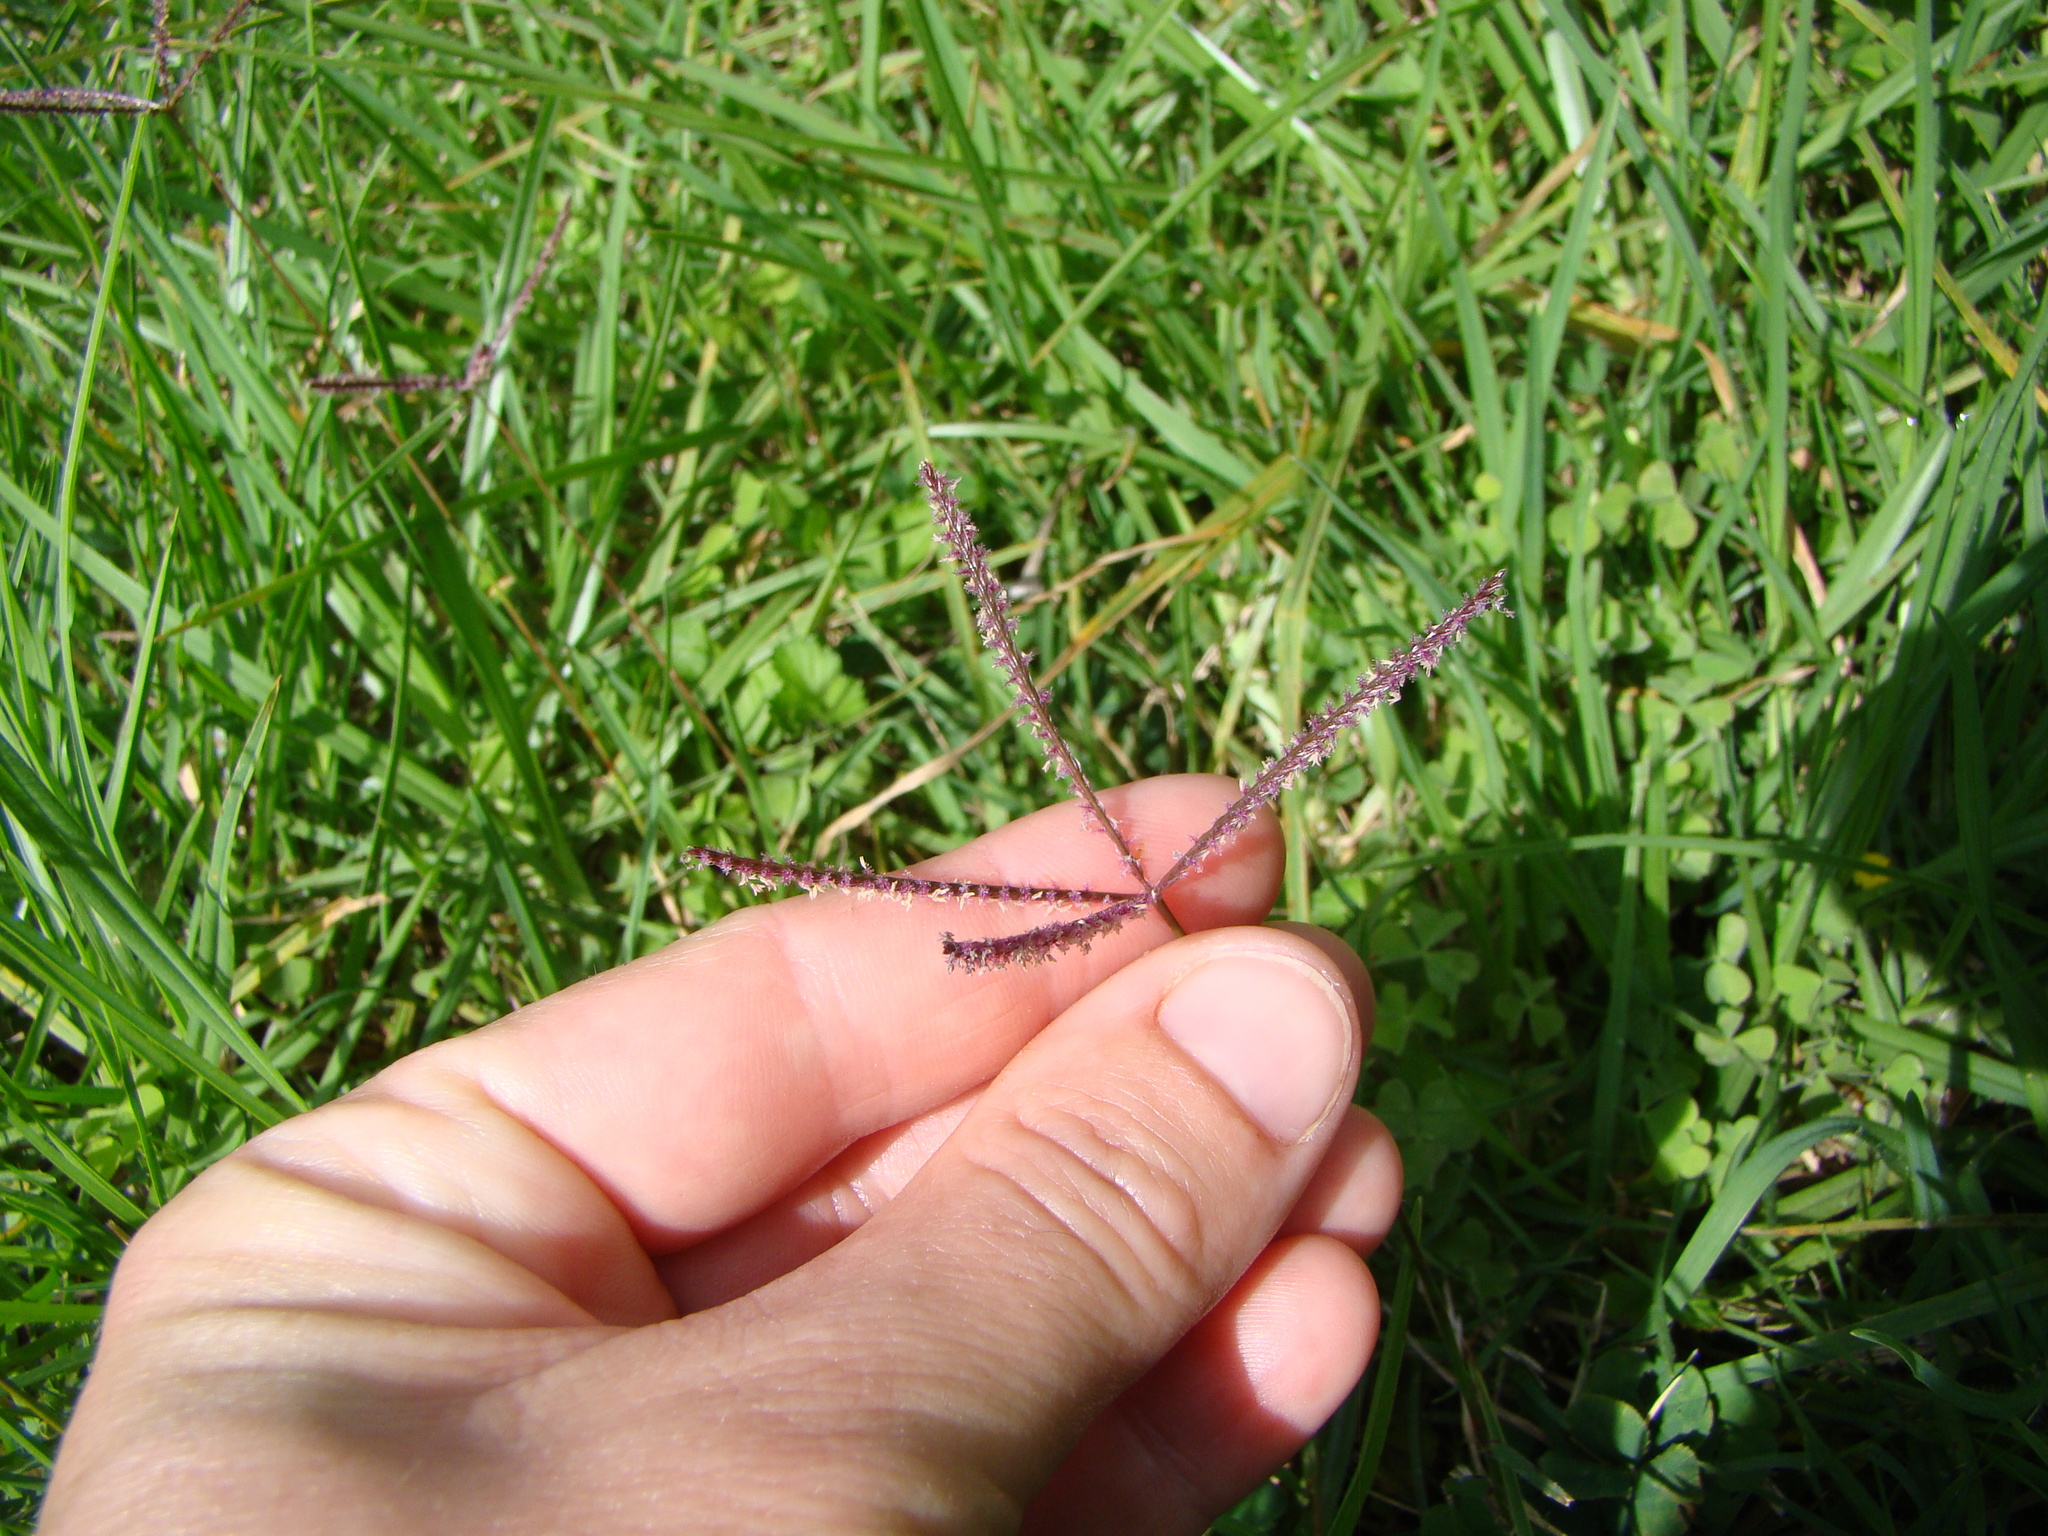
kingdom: Plantae
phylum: Tracheophyta
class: Liliopsida
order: Poales
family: Poaceae
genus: Cynodon
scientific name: Cynodon dactylon
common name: Bermuda grass
